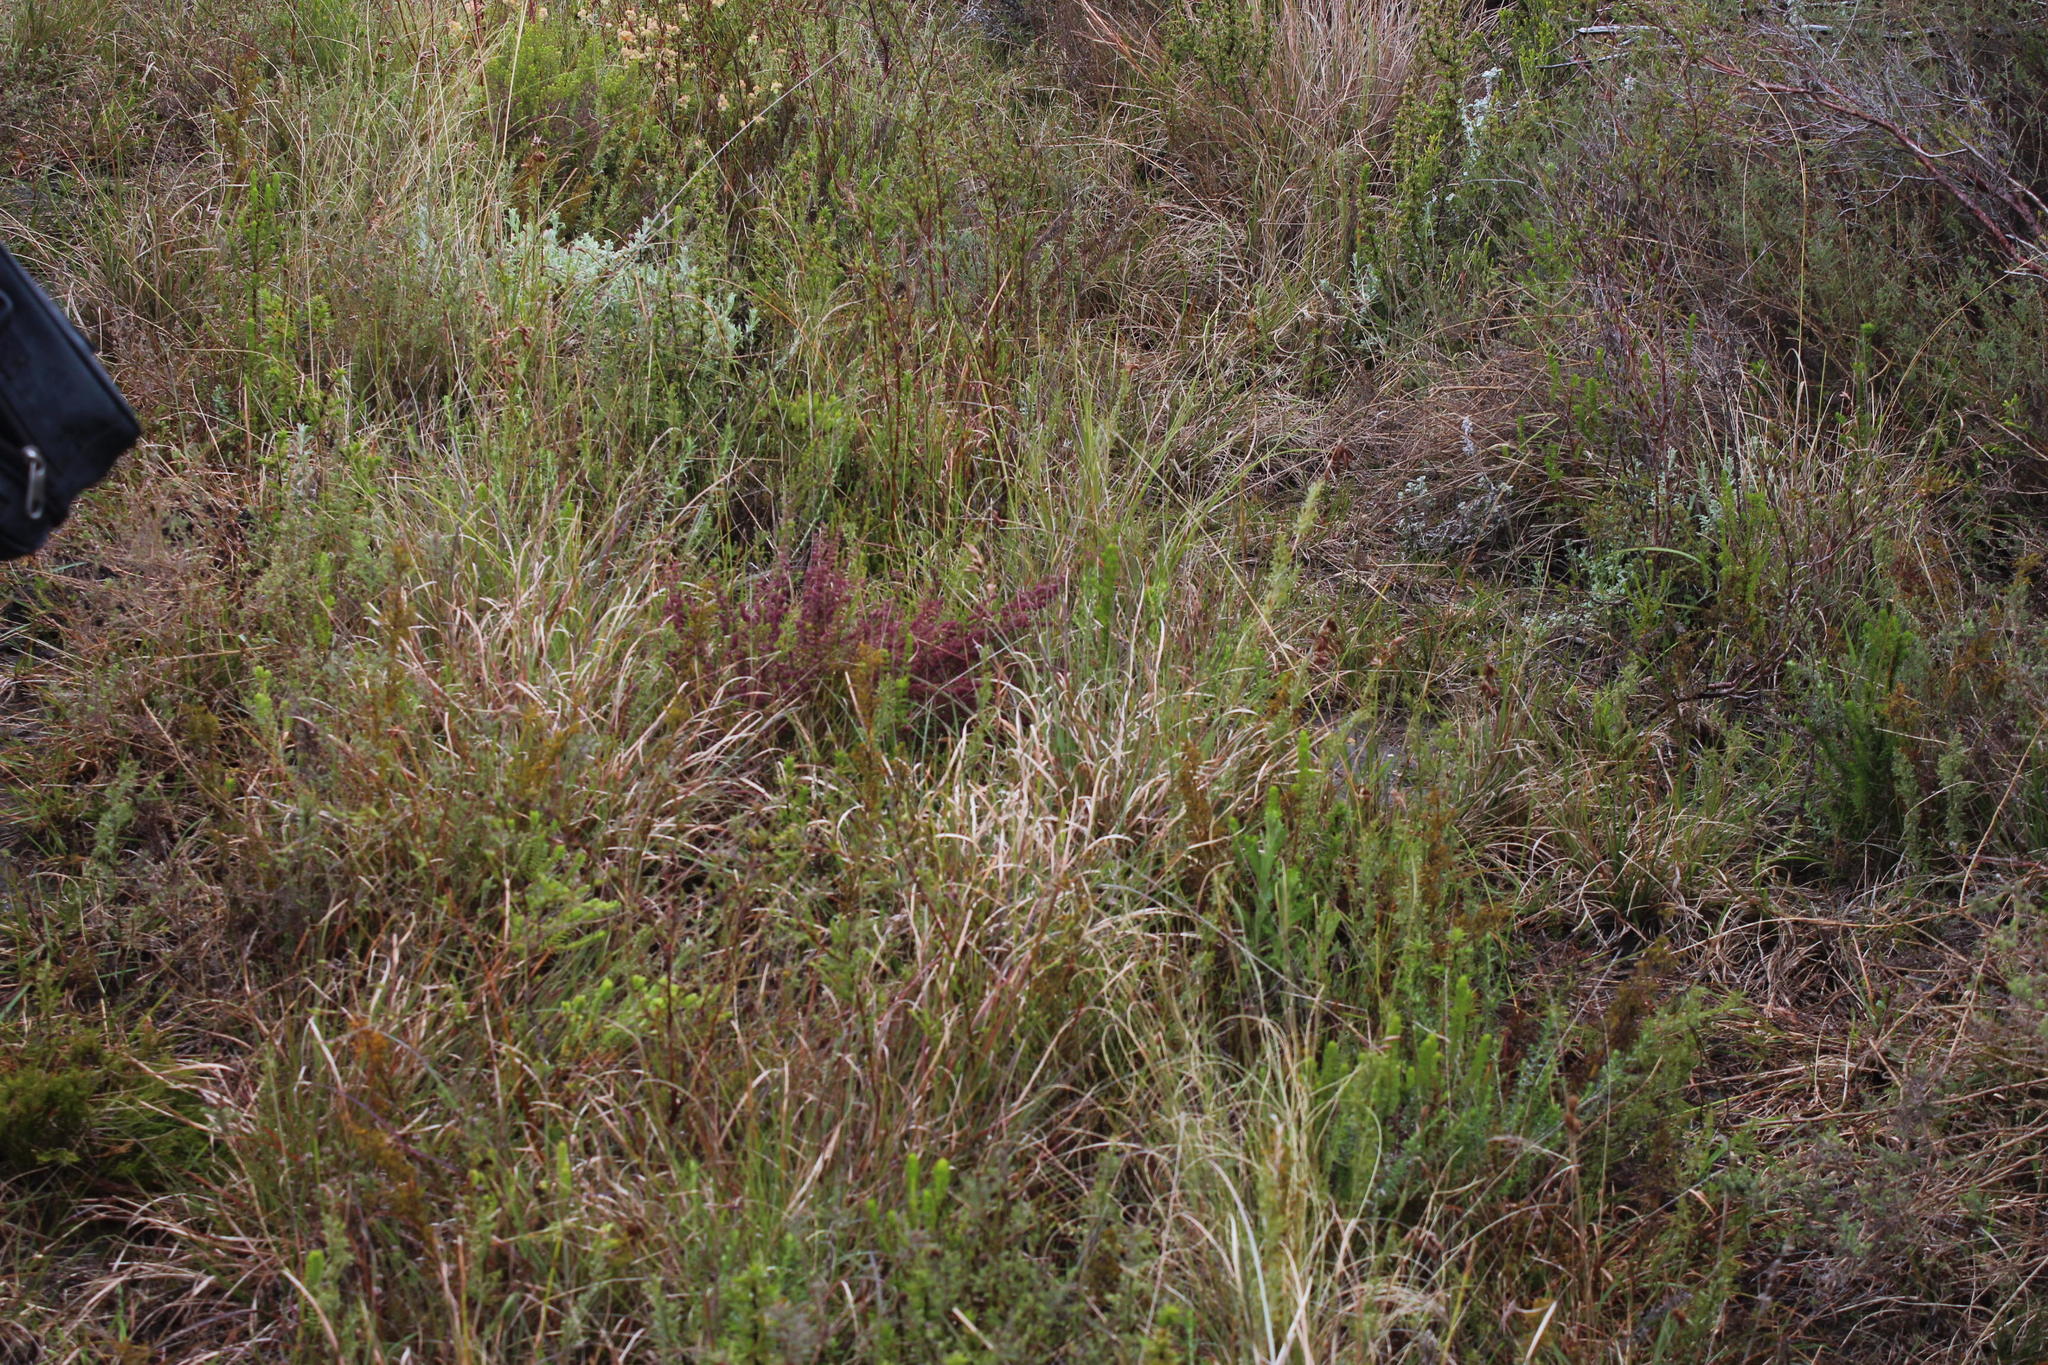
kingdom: Plantae
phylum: Tracheophyta
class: Liliopsida
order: Poales
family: Restionaceae
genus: Thamnochortus
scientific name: Thamnochortus fruticosus
